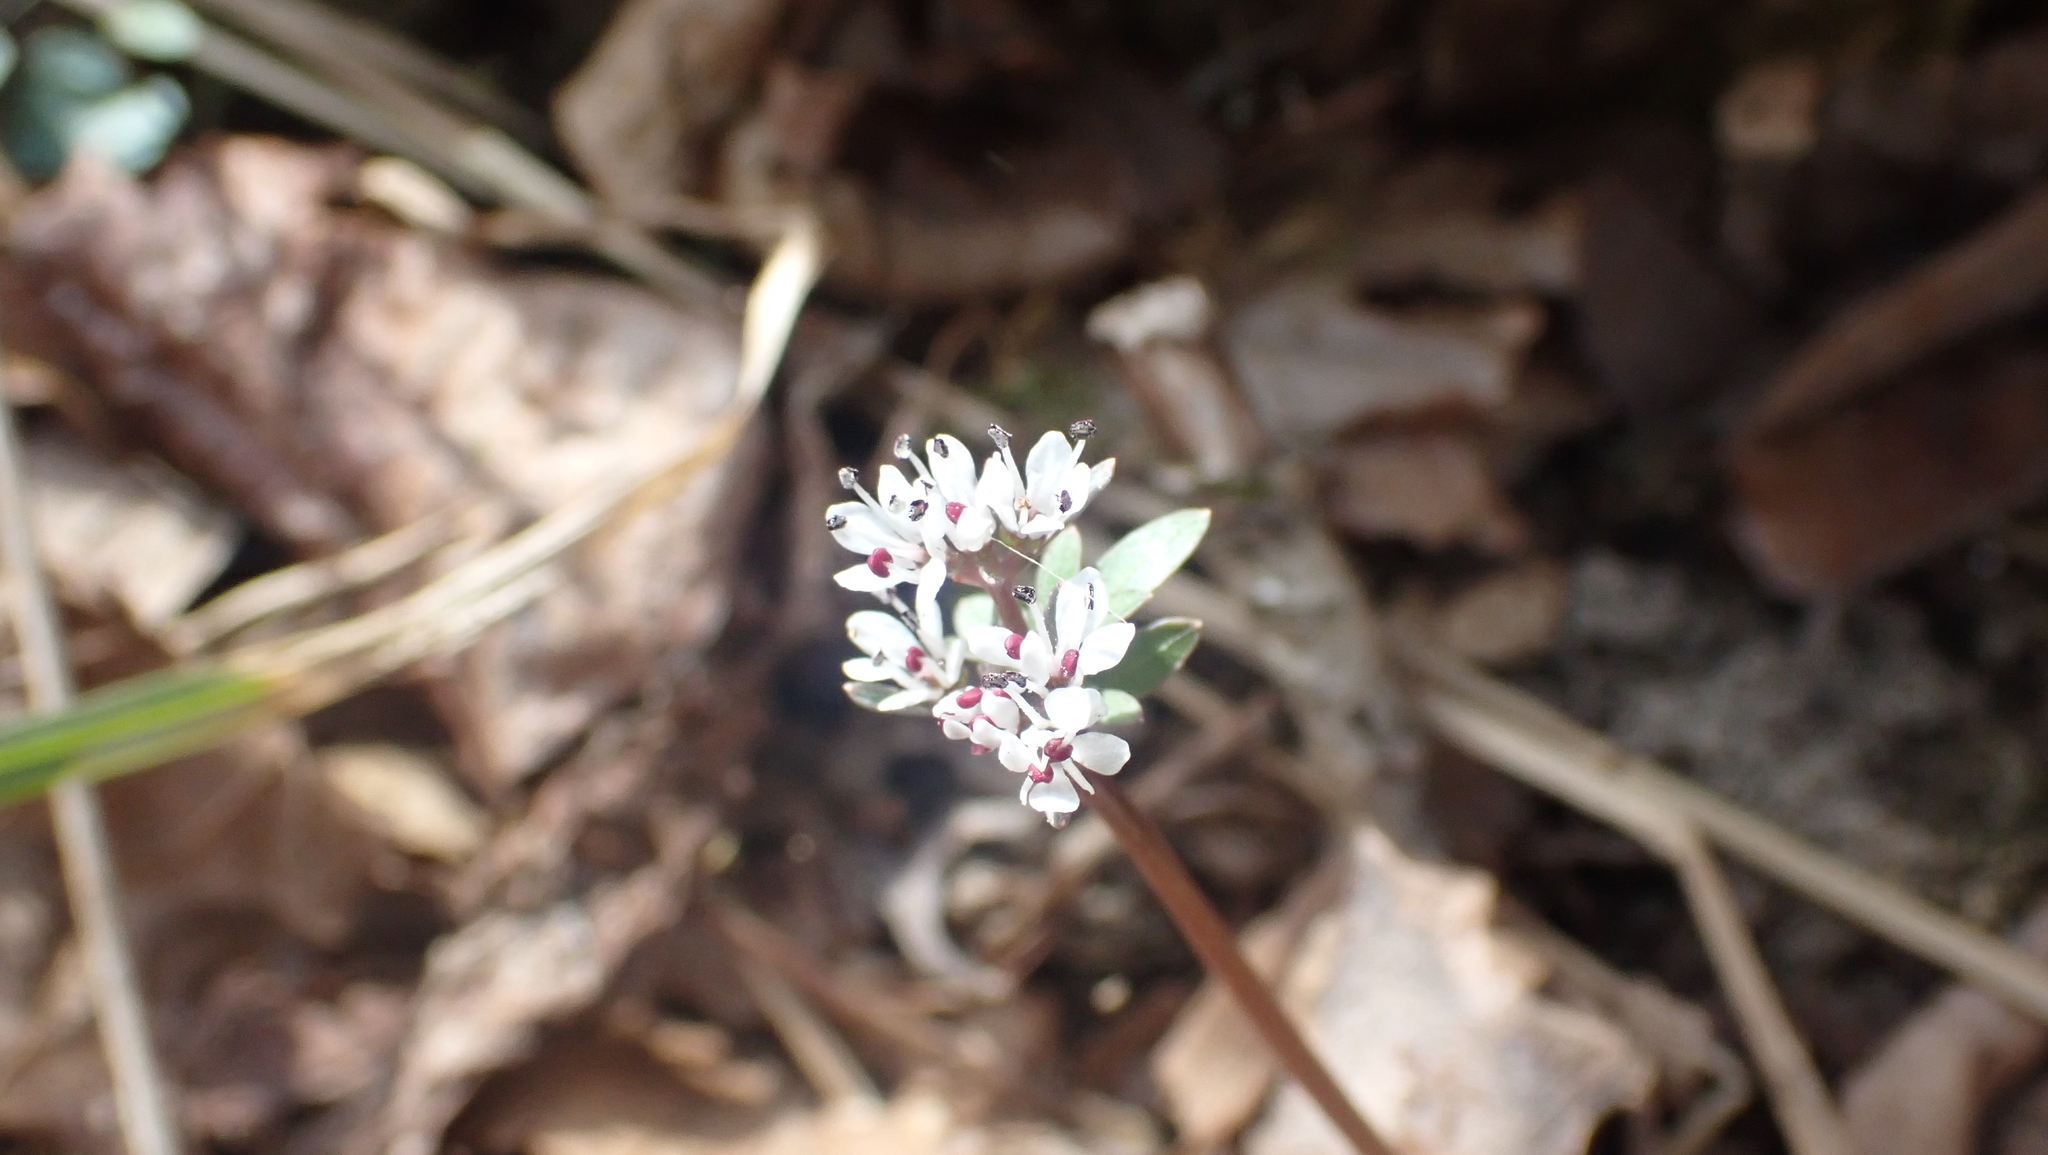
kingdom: Plantae
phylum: Tracheophyta
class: Magnoliopsida
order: Apiales
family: Apiaceae
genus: Erigenia
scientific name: Erigenia bulbosa
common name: Pepper-and-salt
